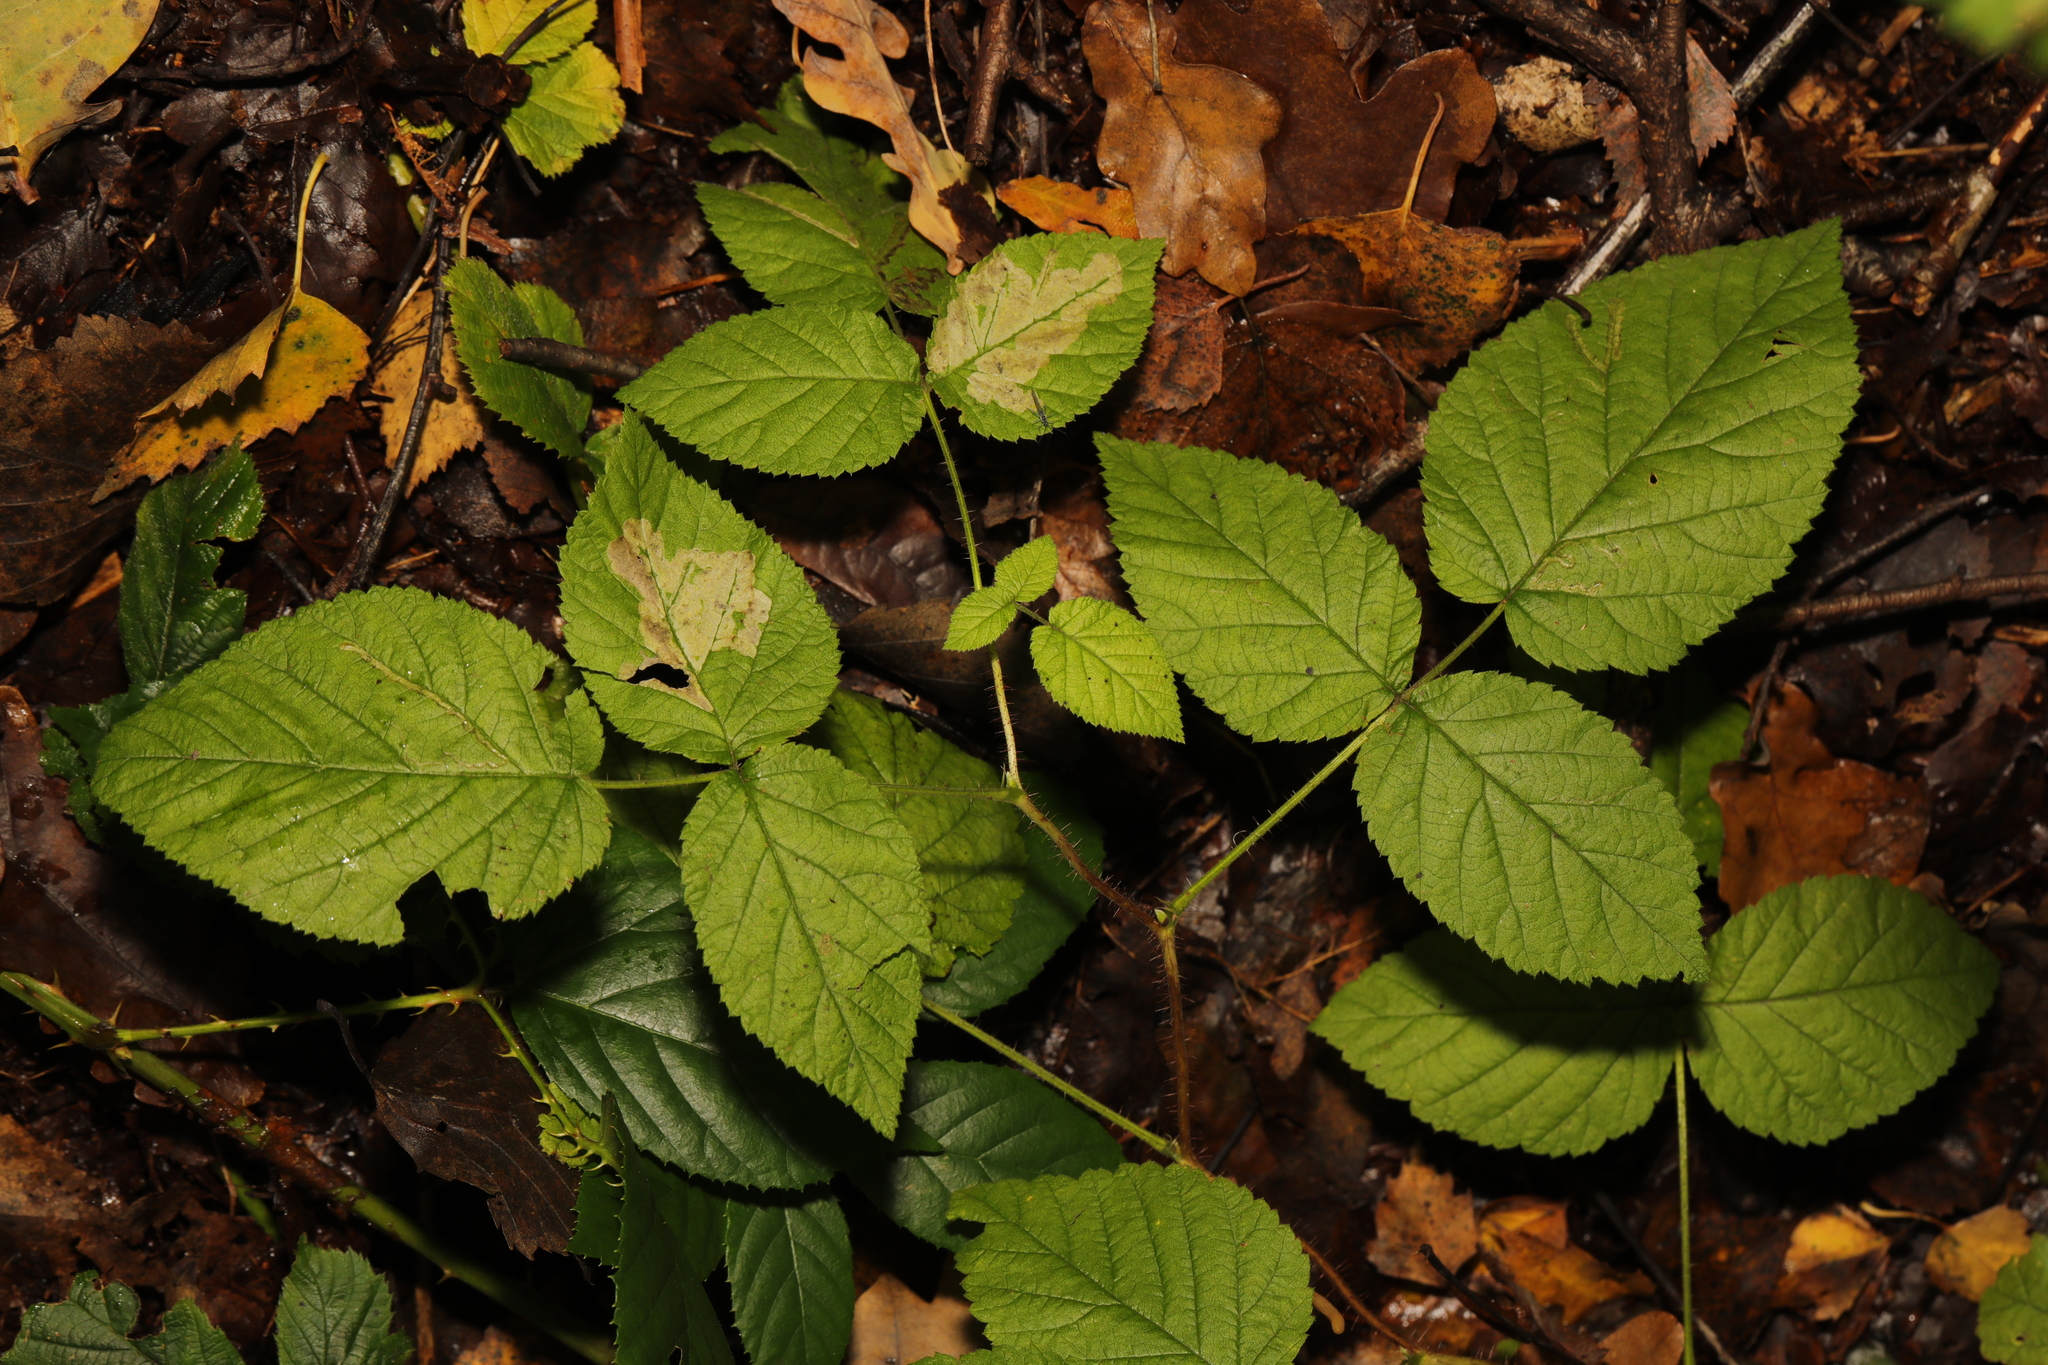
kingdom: Plantae
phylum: Tracheophyta
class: Magnoliopsida
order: Rosales
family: Rosaceae
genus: Rubus
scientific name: Rubus idaeus
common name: Raspberry
